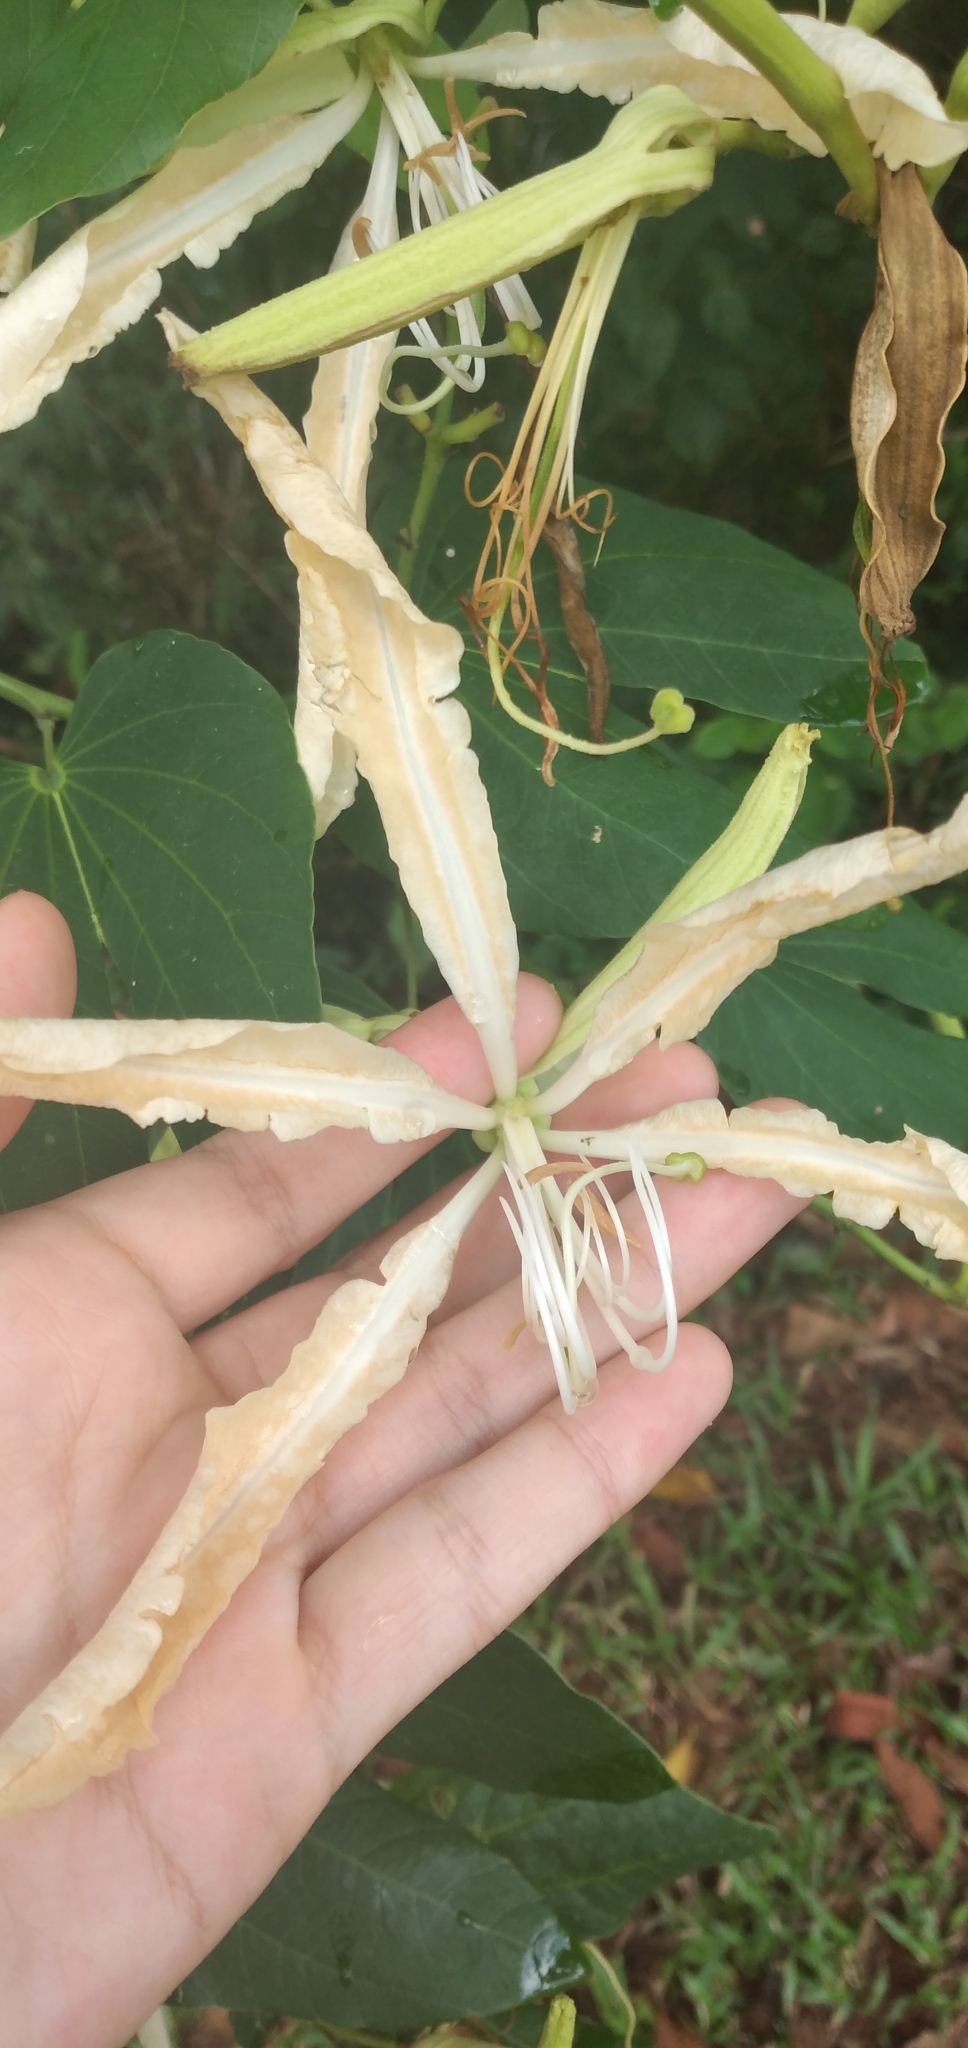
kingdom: Plantae
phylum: Tracheophyta
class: Magnoliopsida
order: Fabales
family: Fabaceae
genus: Bauhinia
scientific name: Bauhinia forficata
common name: Orchid tree
